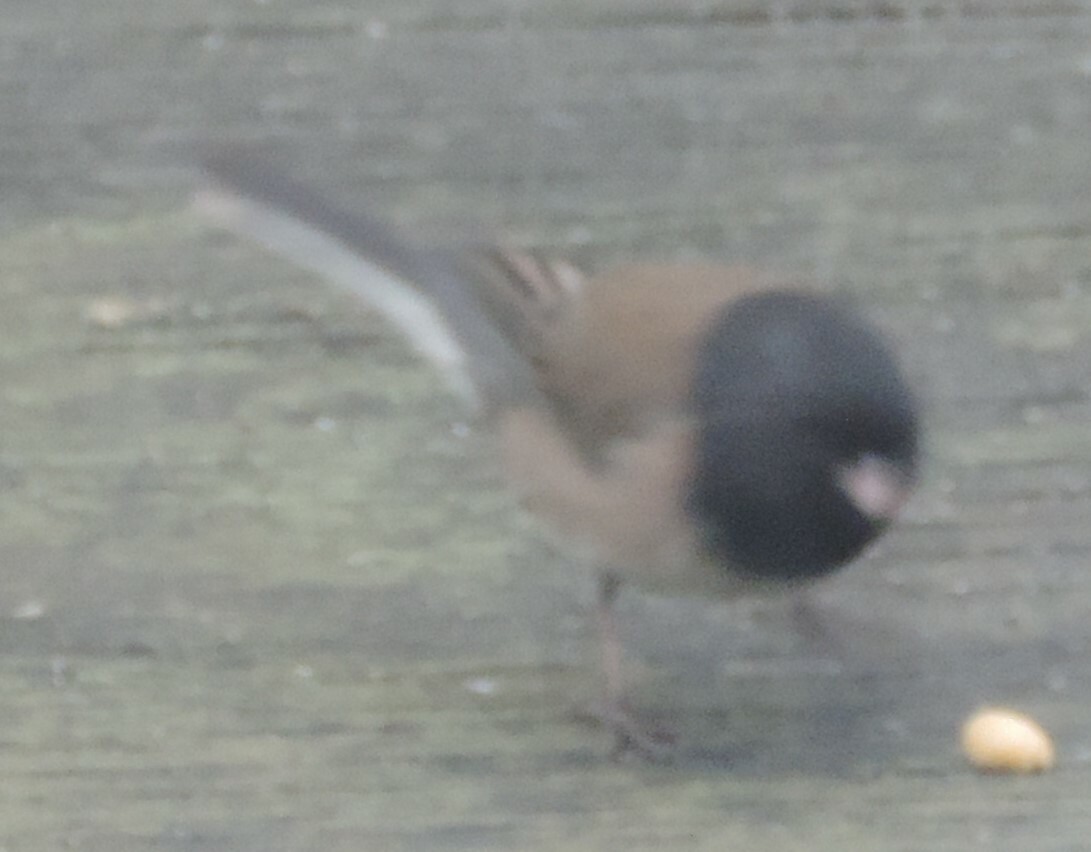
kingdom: Animalia
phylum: Chordata
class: Aves
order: Passeriformes
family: Passerellidae
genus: Junco
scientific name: Junco hyemalis
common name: Dark-eyed junco
